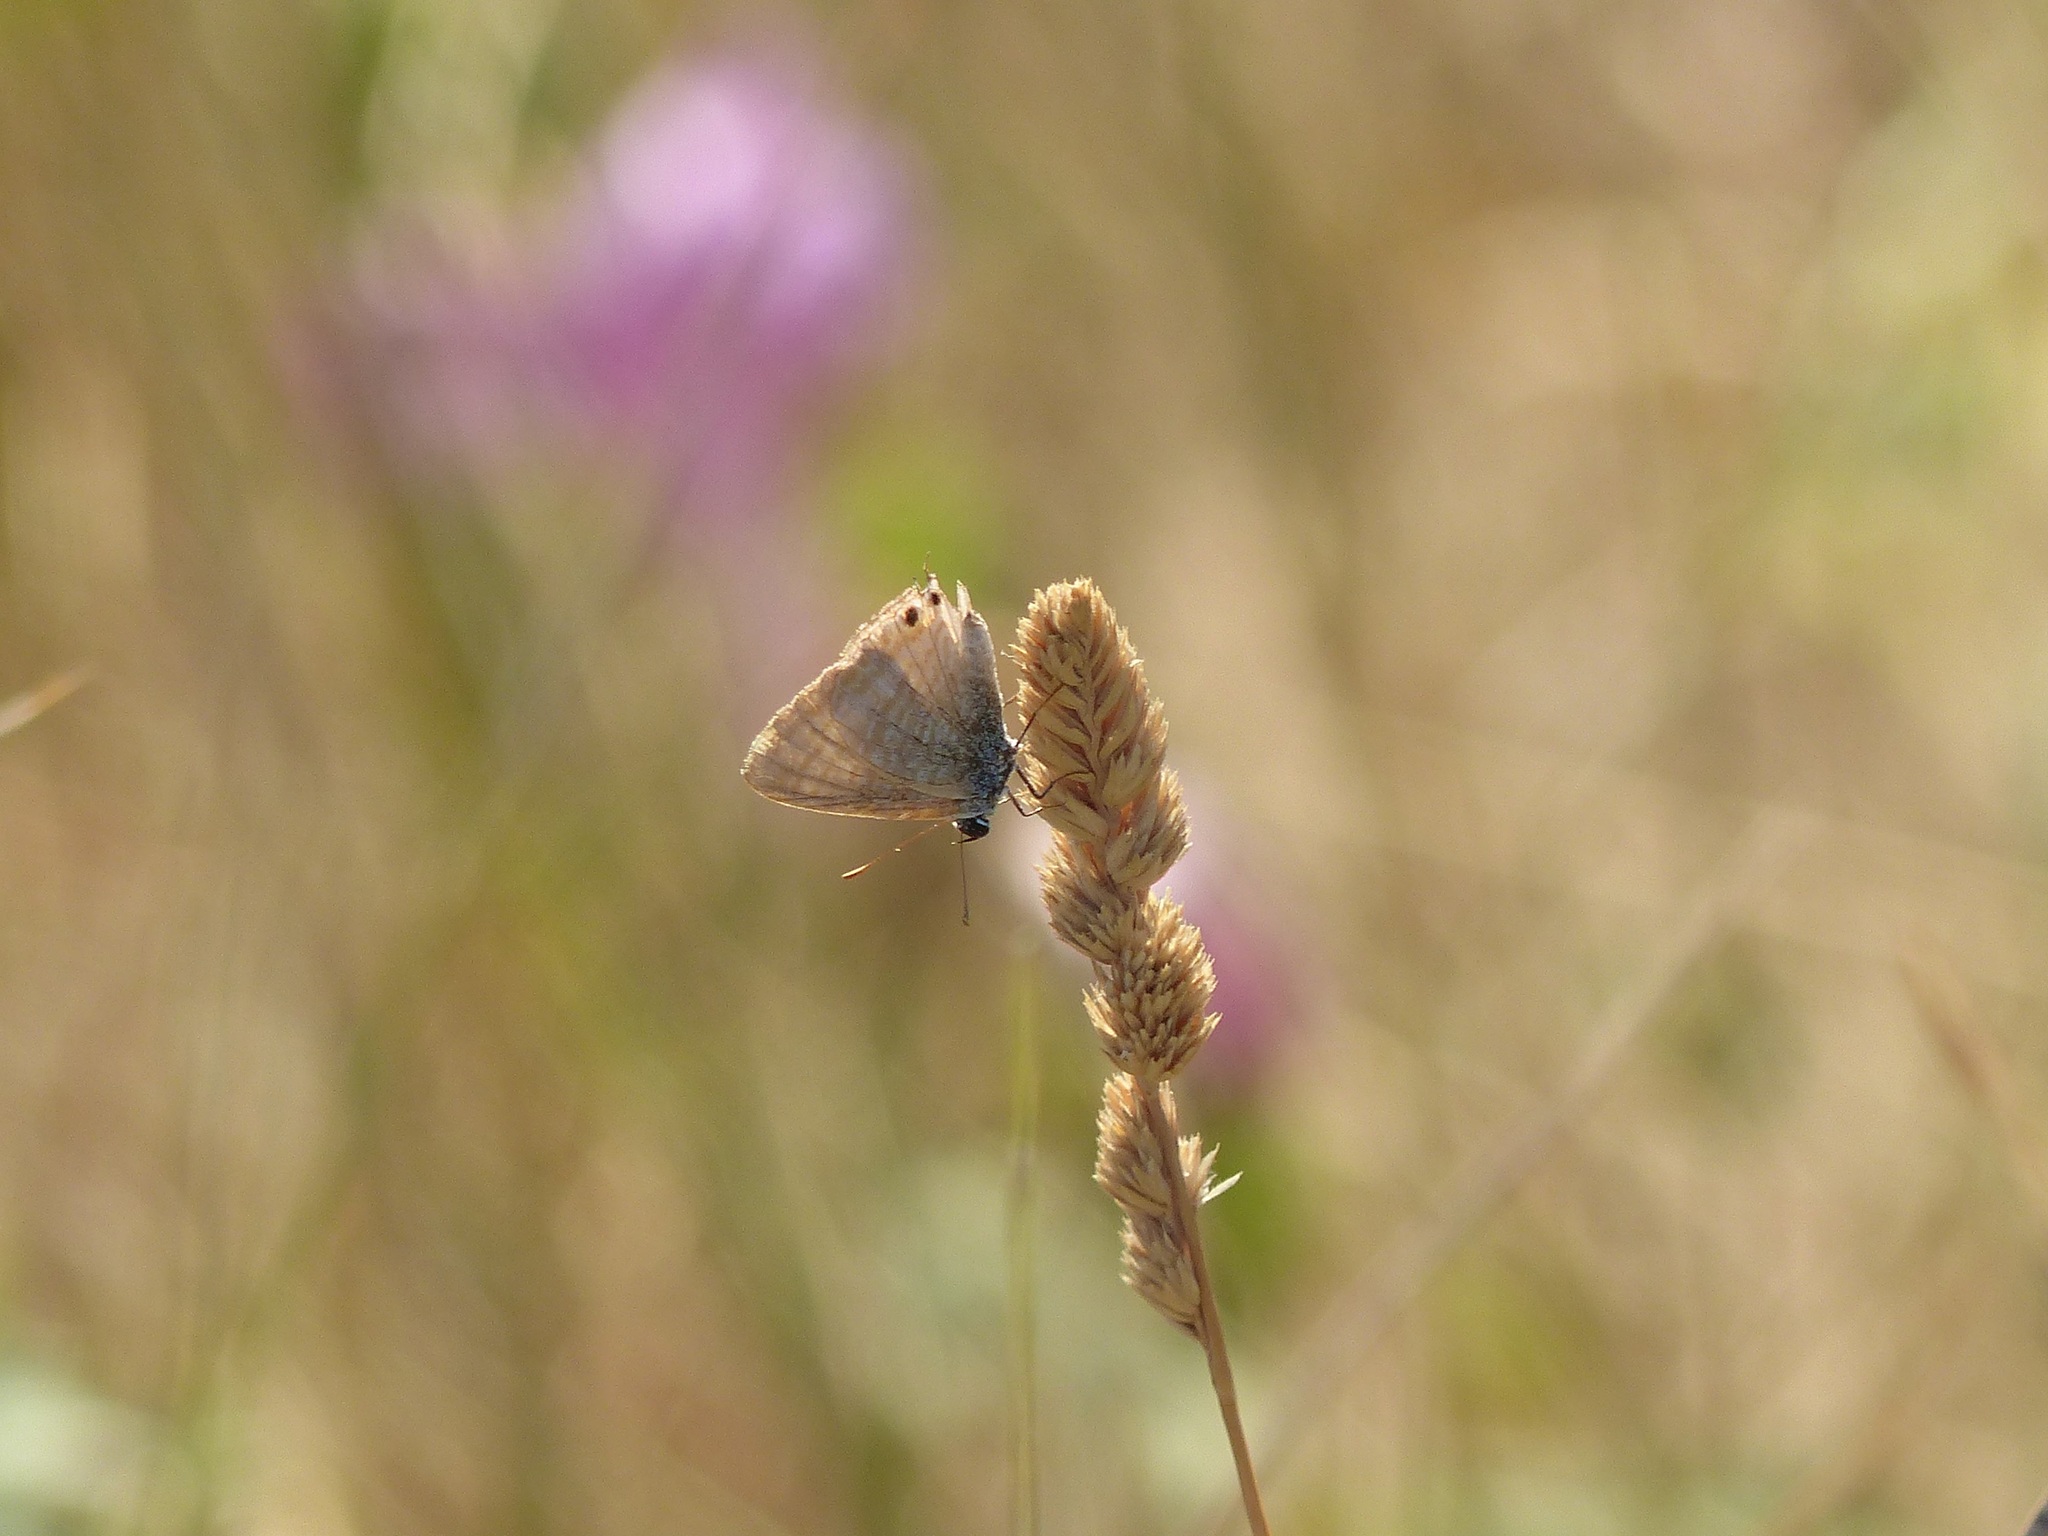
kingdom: Animalia
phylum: Arthropoda
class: Insecta
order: Lepidoptera
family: Lycaenidae
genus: Lampides
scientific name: Lampides boeticus
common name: Long-tailed blue
